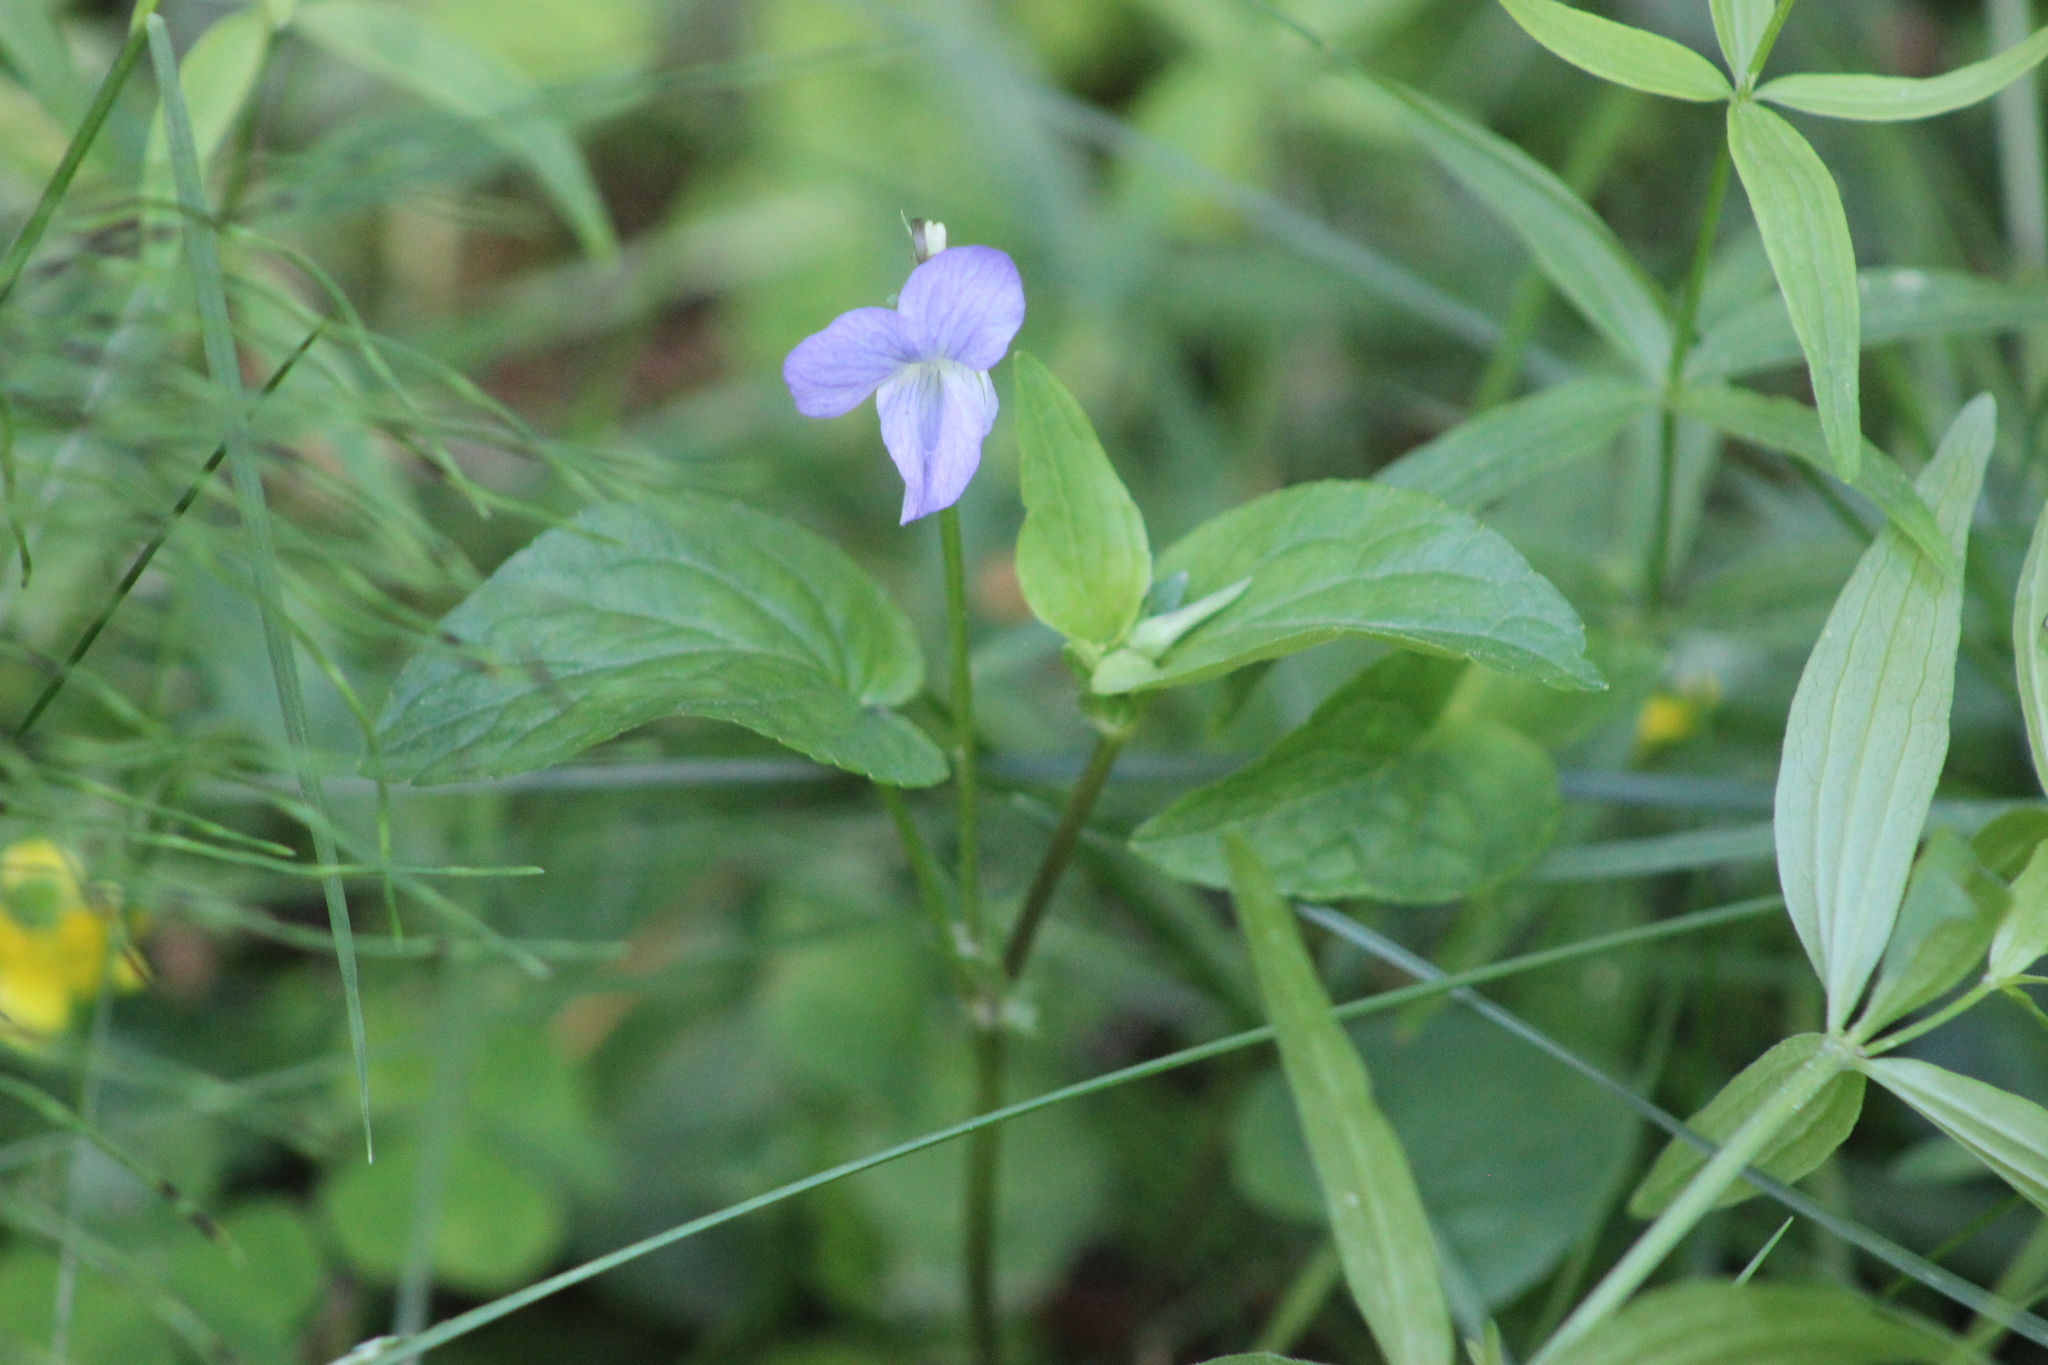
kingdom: Plantae
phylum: Tracheophyta
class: Magnoliopsida
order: Malpighiales
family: Violaceae
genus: Viola
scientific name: Viola
